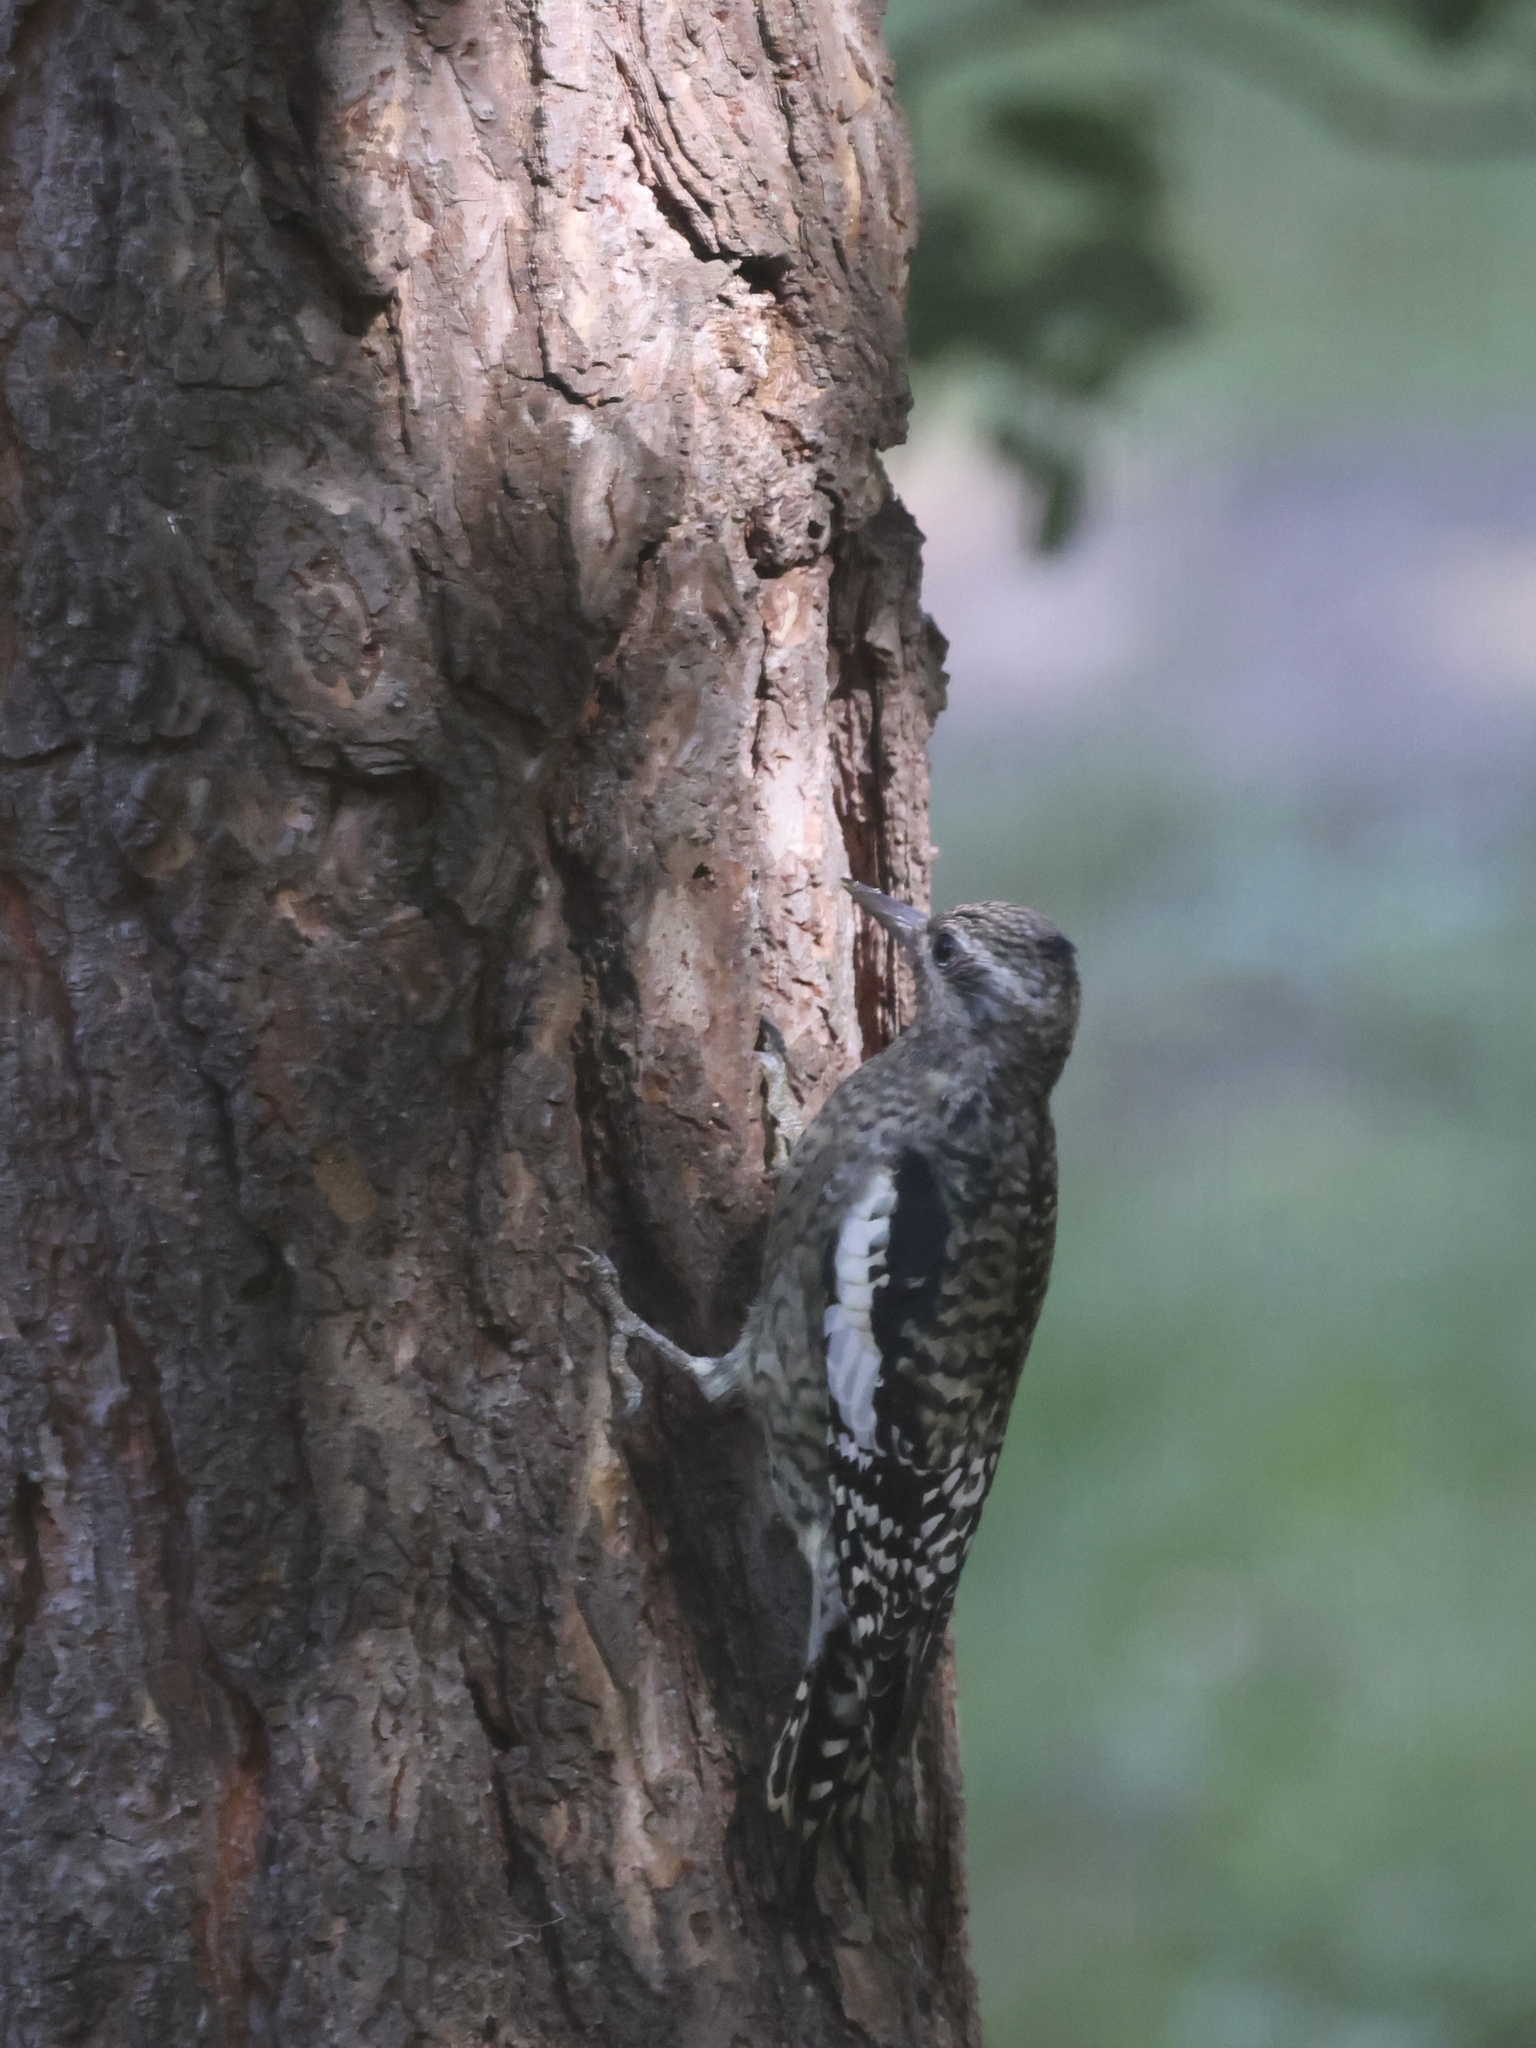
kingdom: Animalia
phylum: Chordata
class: Aves
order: Piciformes
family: Picidae
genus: Sphyrapicus
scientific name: Sphyrapicus varius
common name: Yellow-bellied sapsucker
